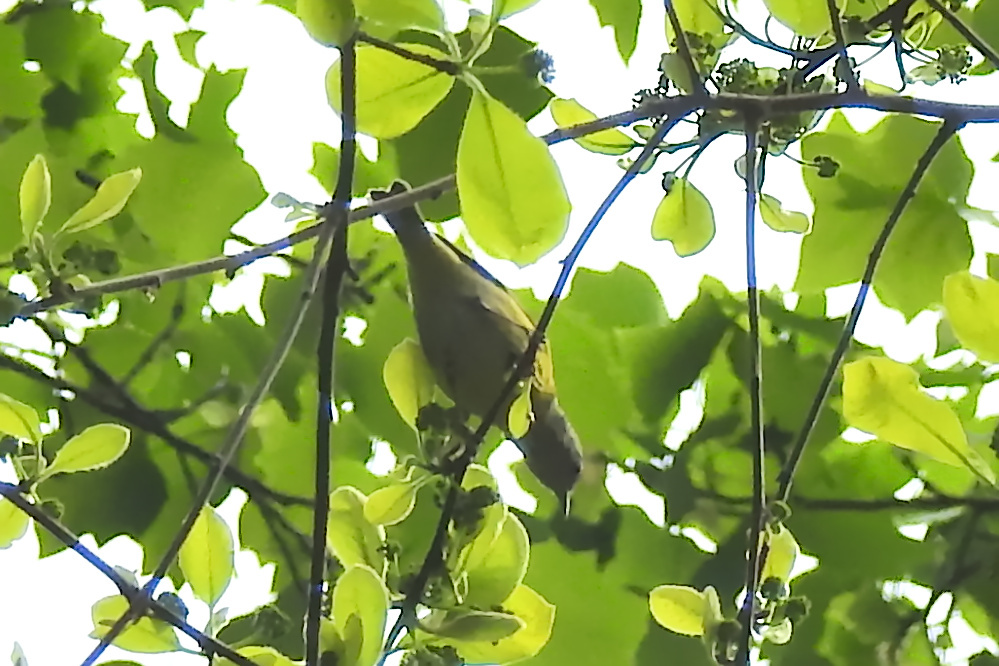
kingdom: Animalia
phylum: Chordata
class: Aves
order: Passeriformes
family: Parulidae
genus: Leiothlypis
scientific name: Leiothlypis ruficapilla
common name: Nashville warbler
